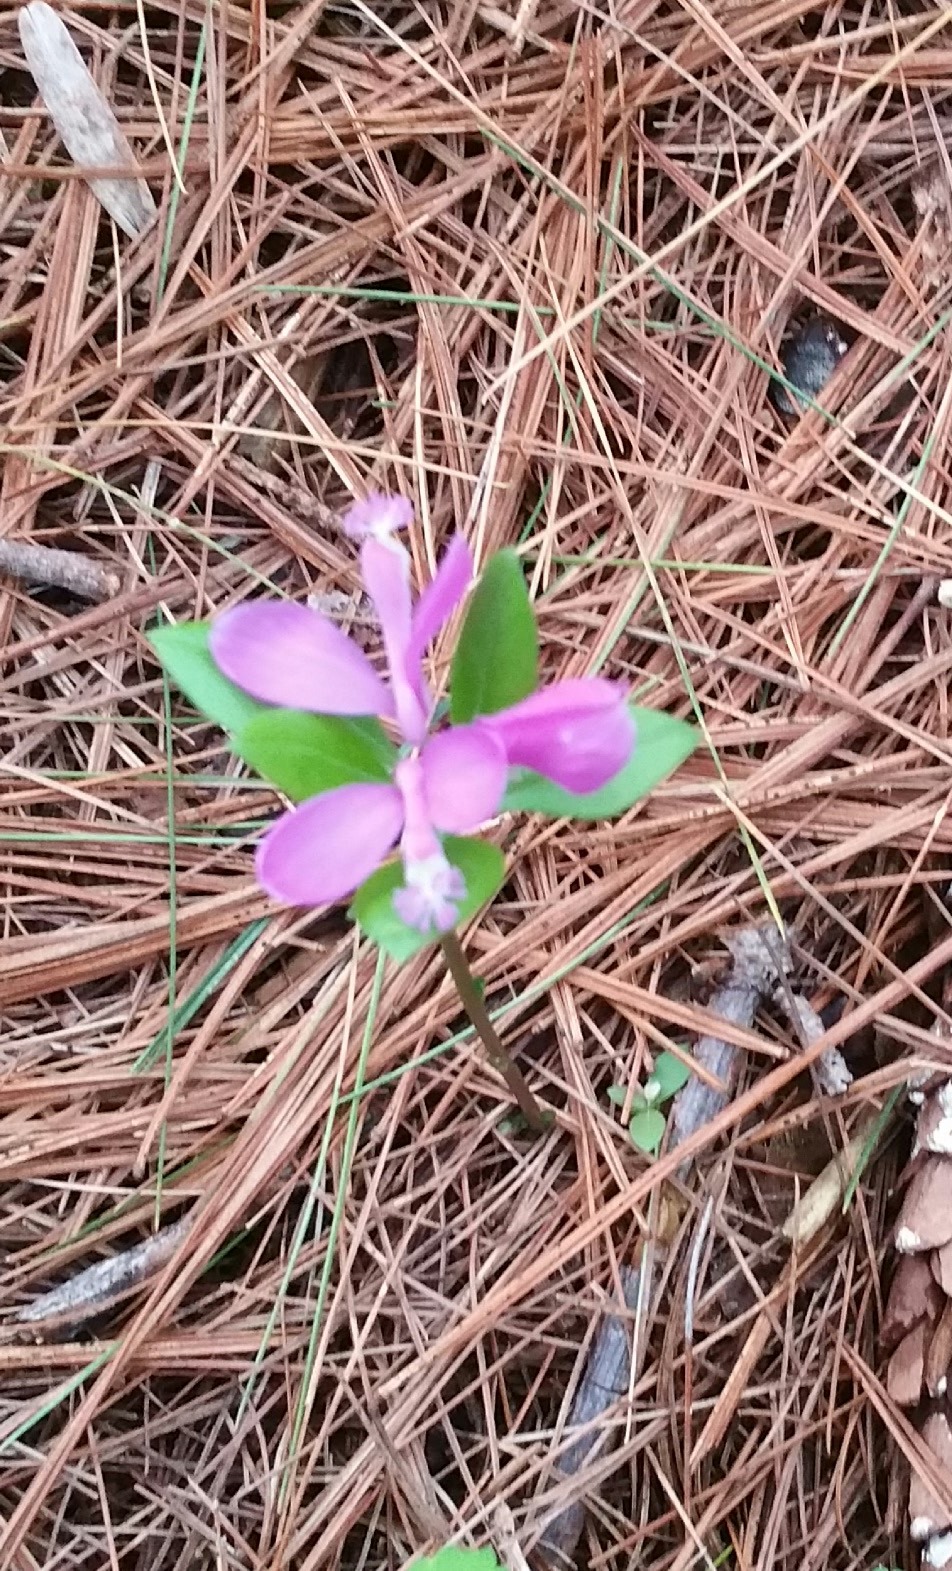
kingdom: Plantae
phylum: Tracheophyta
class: Magnoliopsida
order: Fabales
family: Polygalaceae
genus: Polygaloides
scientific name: Polygaloides paucifolia
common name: Bird-on-the-wing
